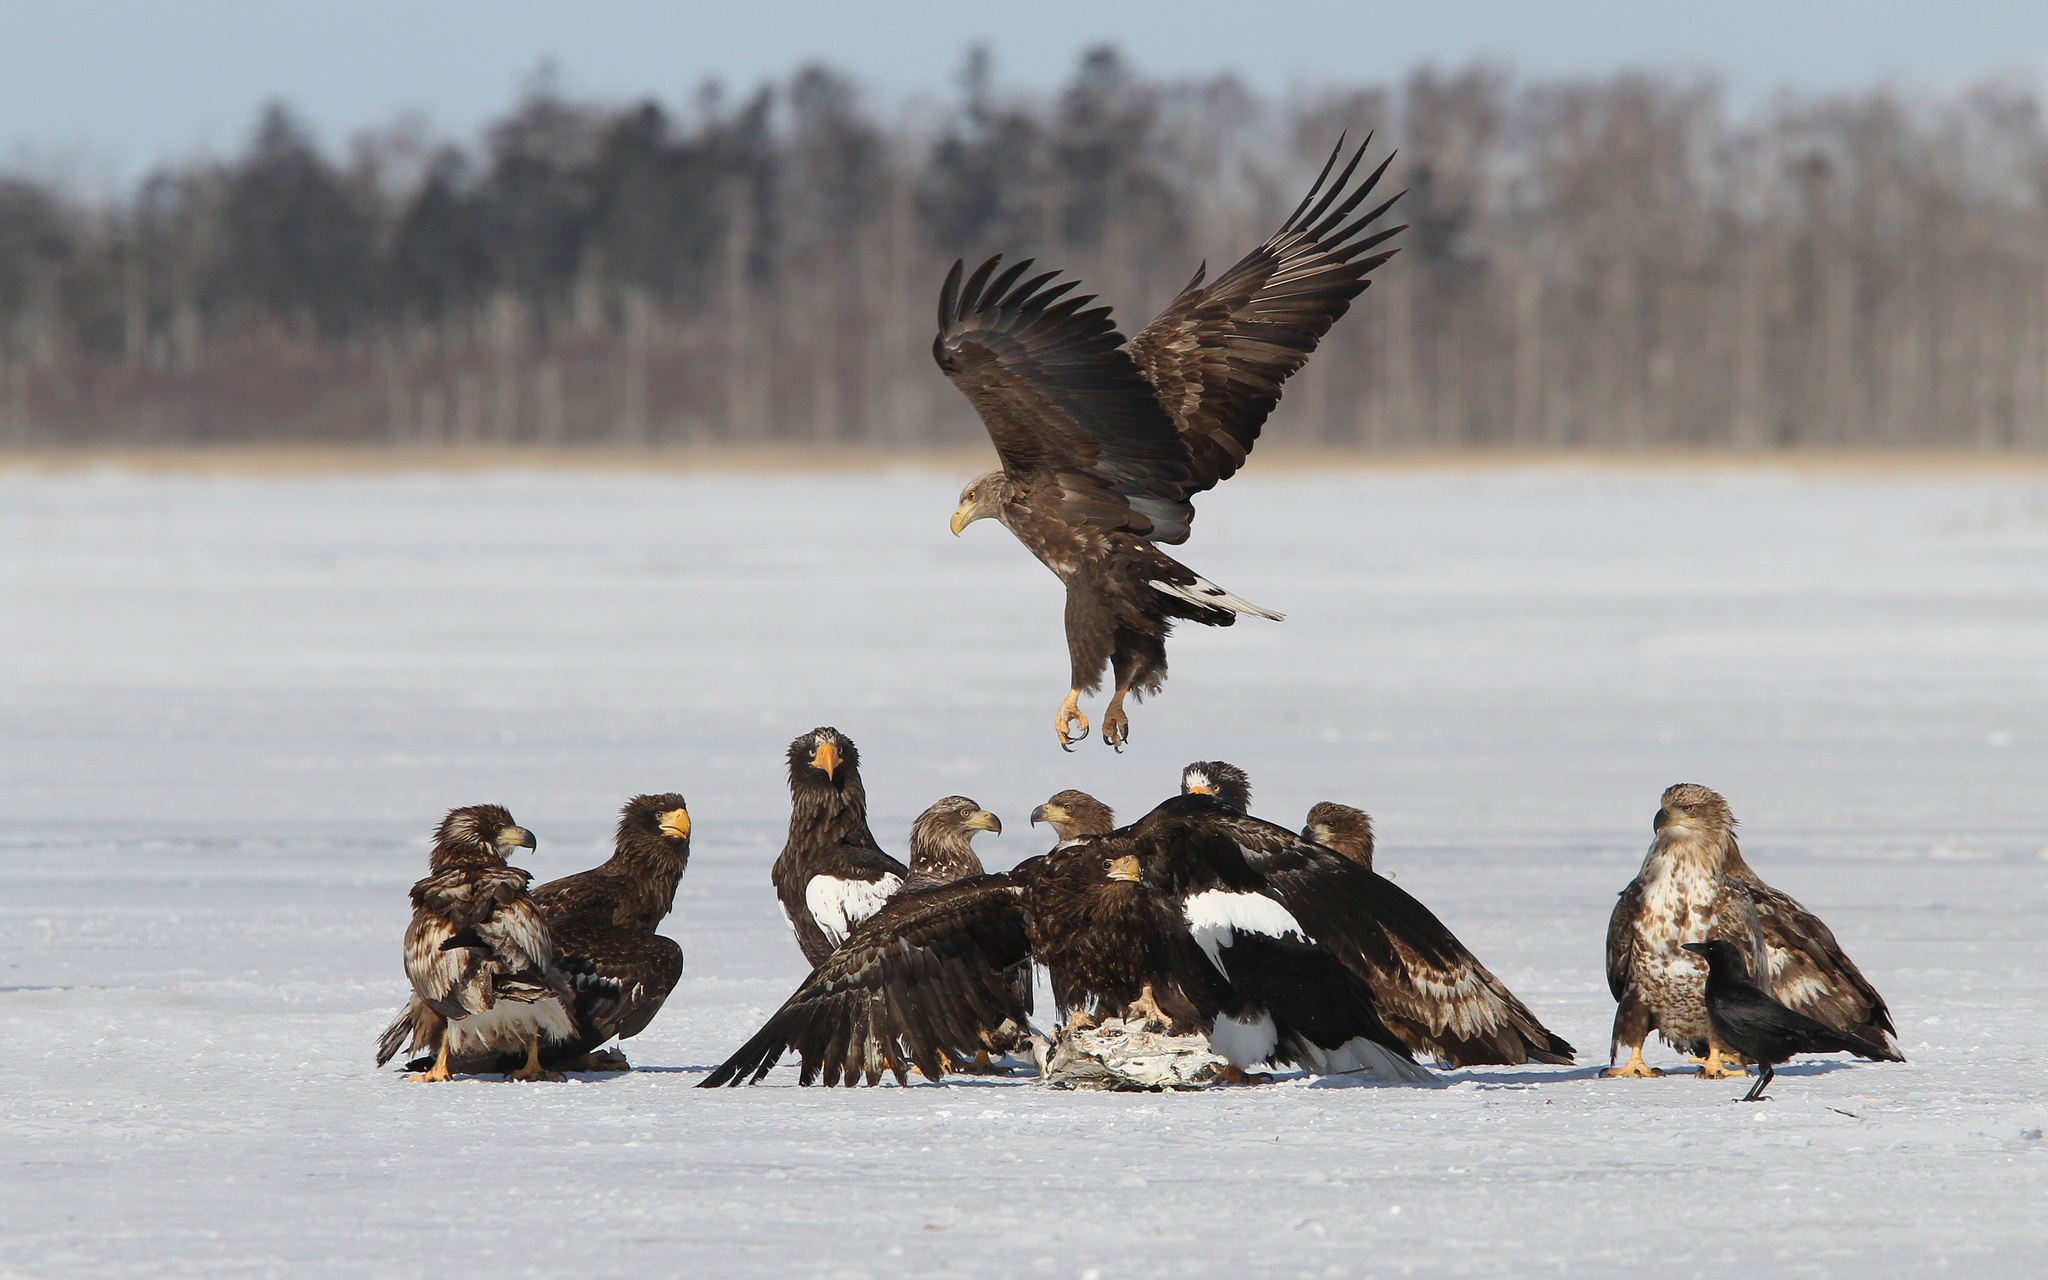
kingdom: Animalia
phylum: Chordata
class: Aves
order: Accipitriformes
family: Accipitridae
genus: Haliaeetus
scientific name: Haliaeetus albicilla
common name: White-tailed eagle
